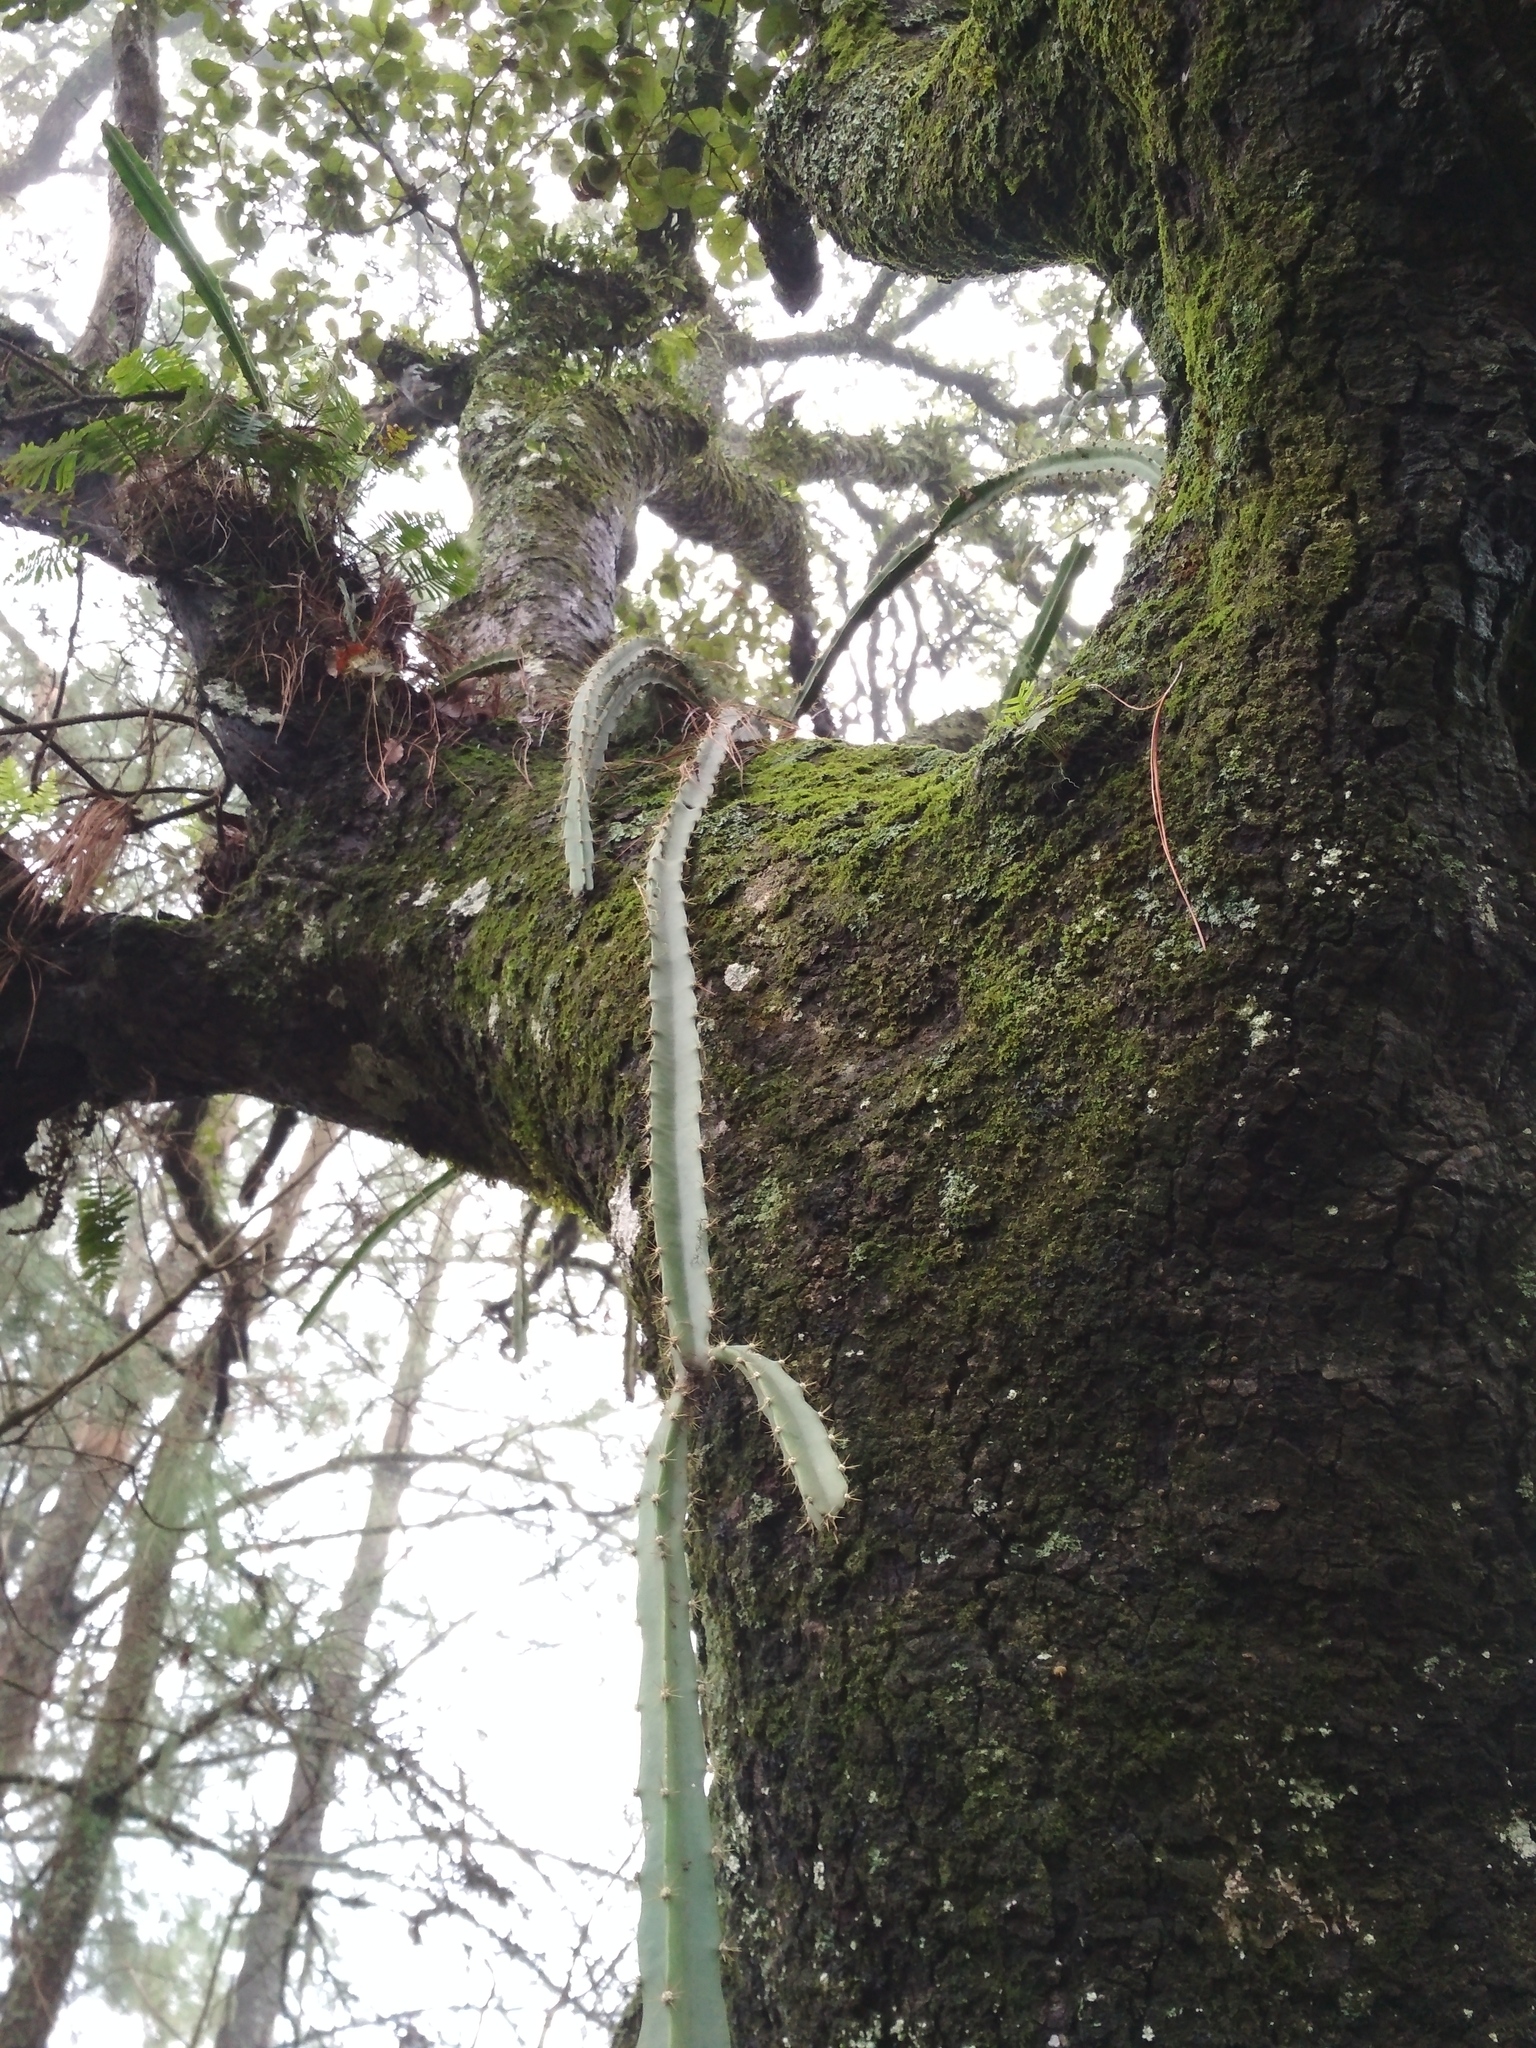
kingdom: Plantae
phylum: Tracheophyta
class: Magnoliopsida
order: Caryophyllales
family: Cactaceae
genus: Disocactus
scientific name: Disocactus
